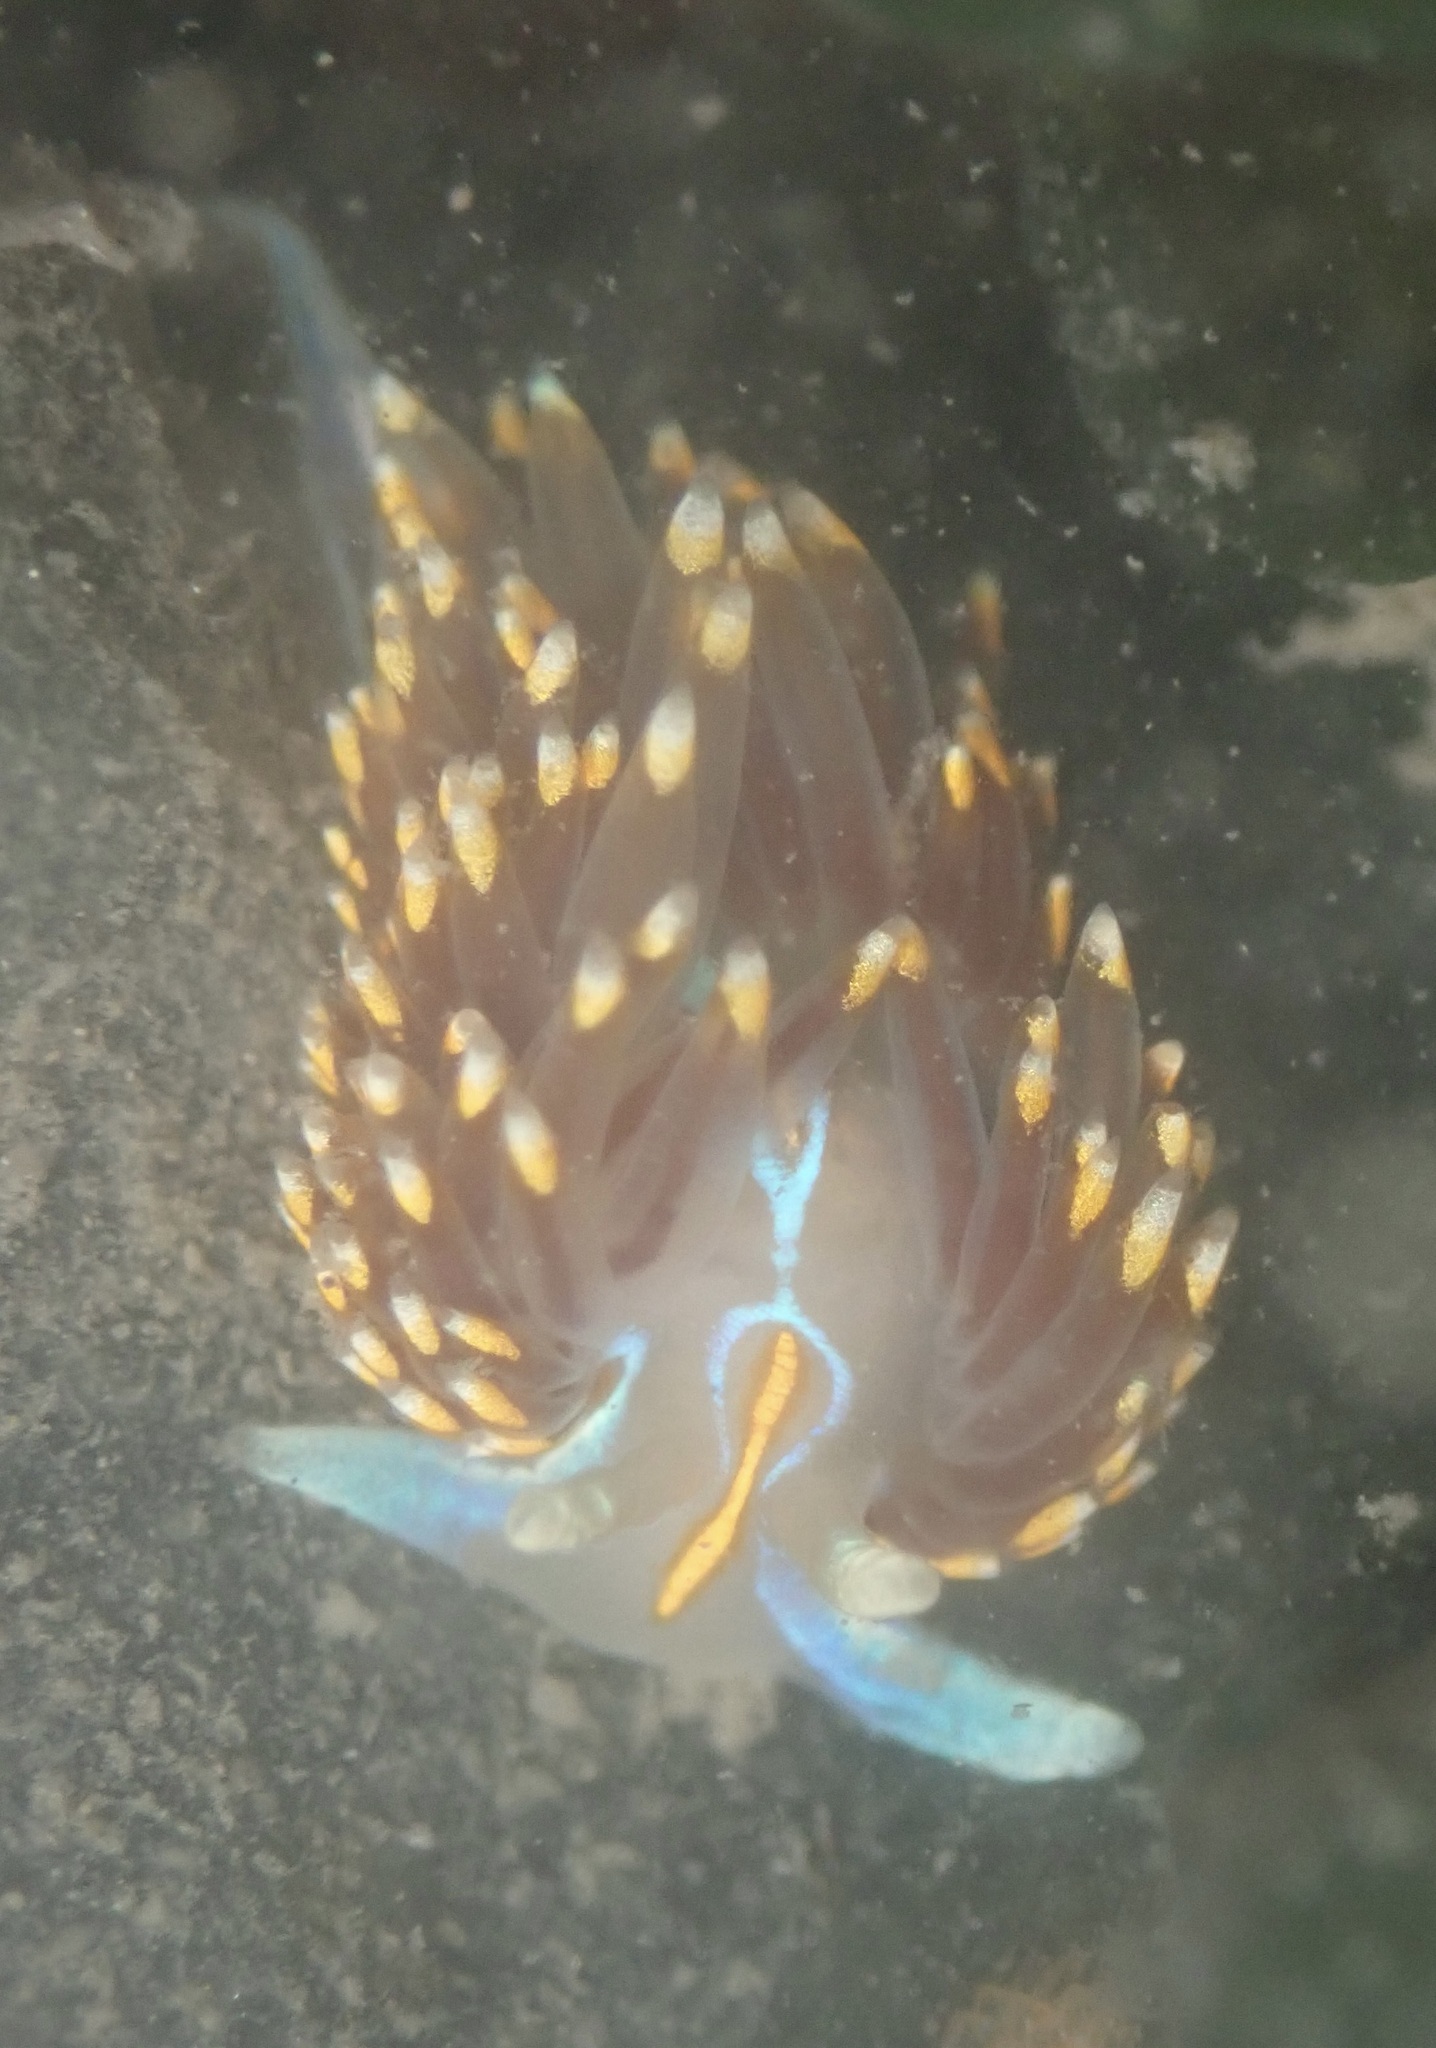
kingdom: Animalia
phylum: Mollusca
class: Gastropoda
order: Nudibranchia
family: Myrrhinidae
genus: Hermissenda
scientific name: Hermissenda opalescens
